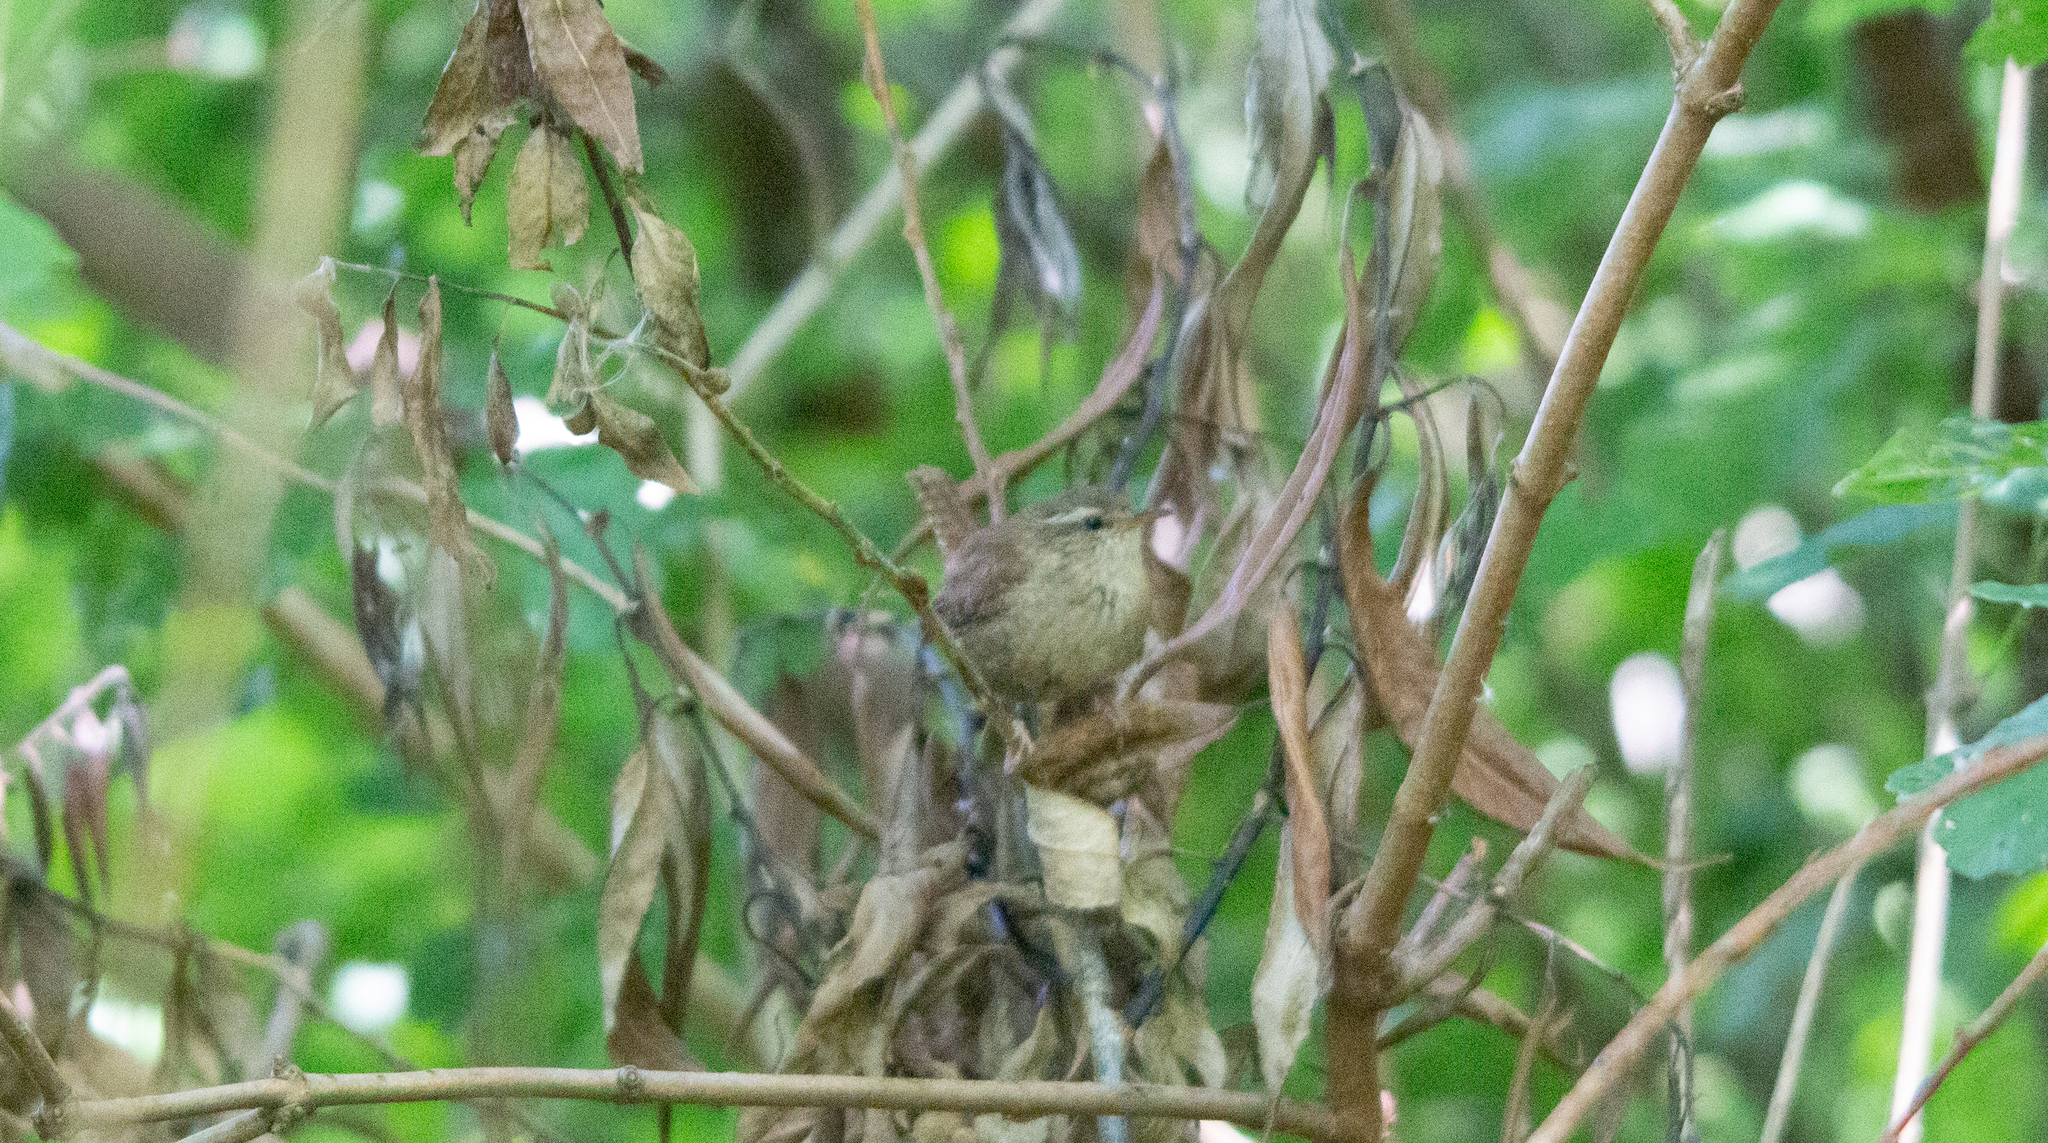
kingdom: Animalia
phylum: Chordata
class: Aves
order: Passeriformes
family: Troglodytidae
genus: Troglodytes
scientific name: Troglodytes troglodytes
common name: Eurasian wren
